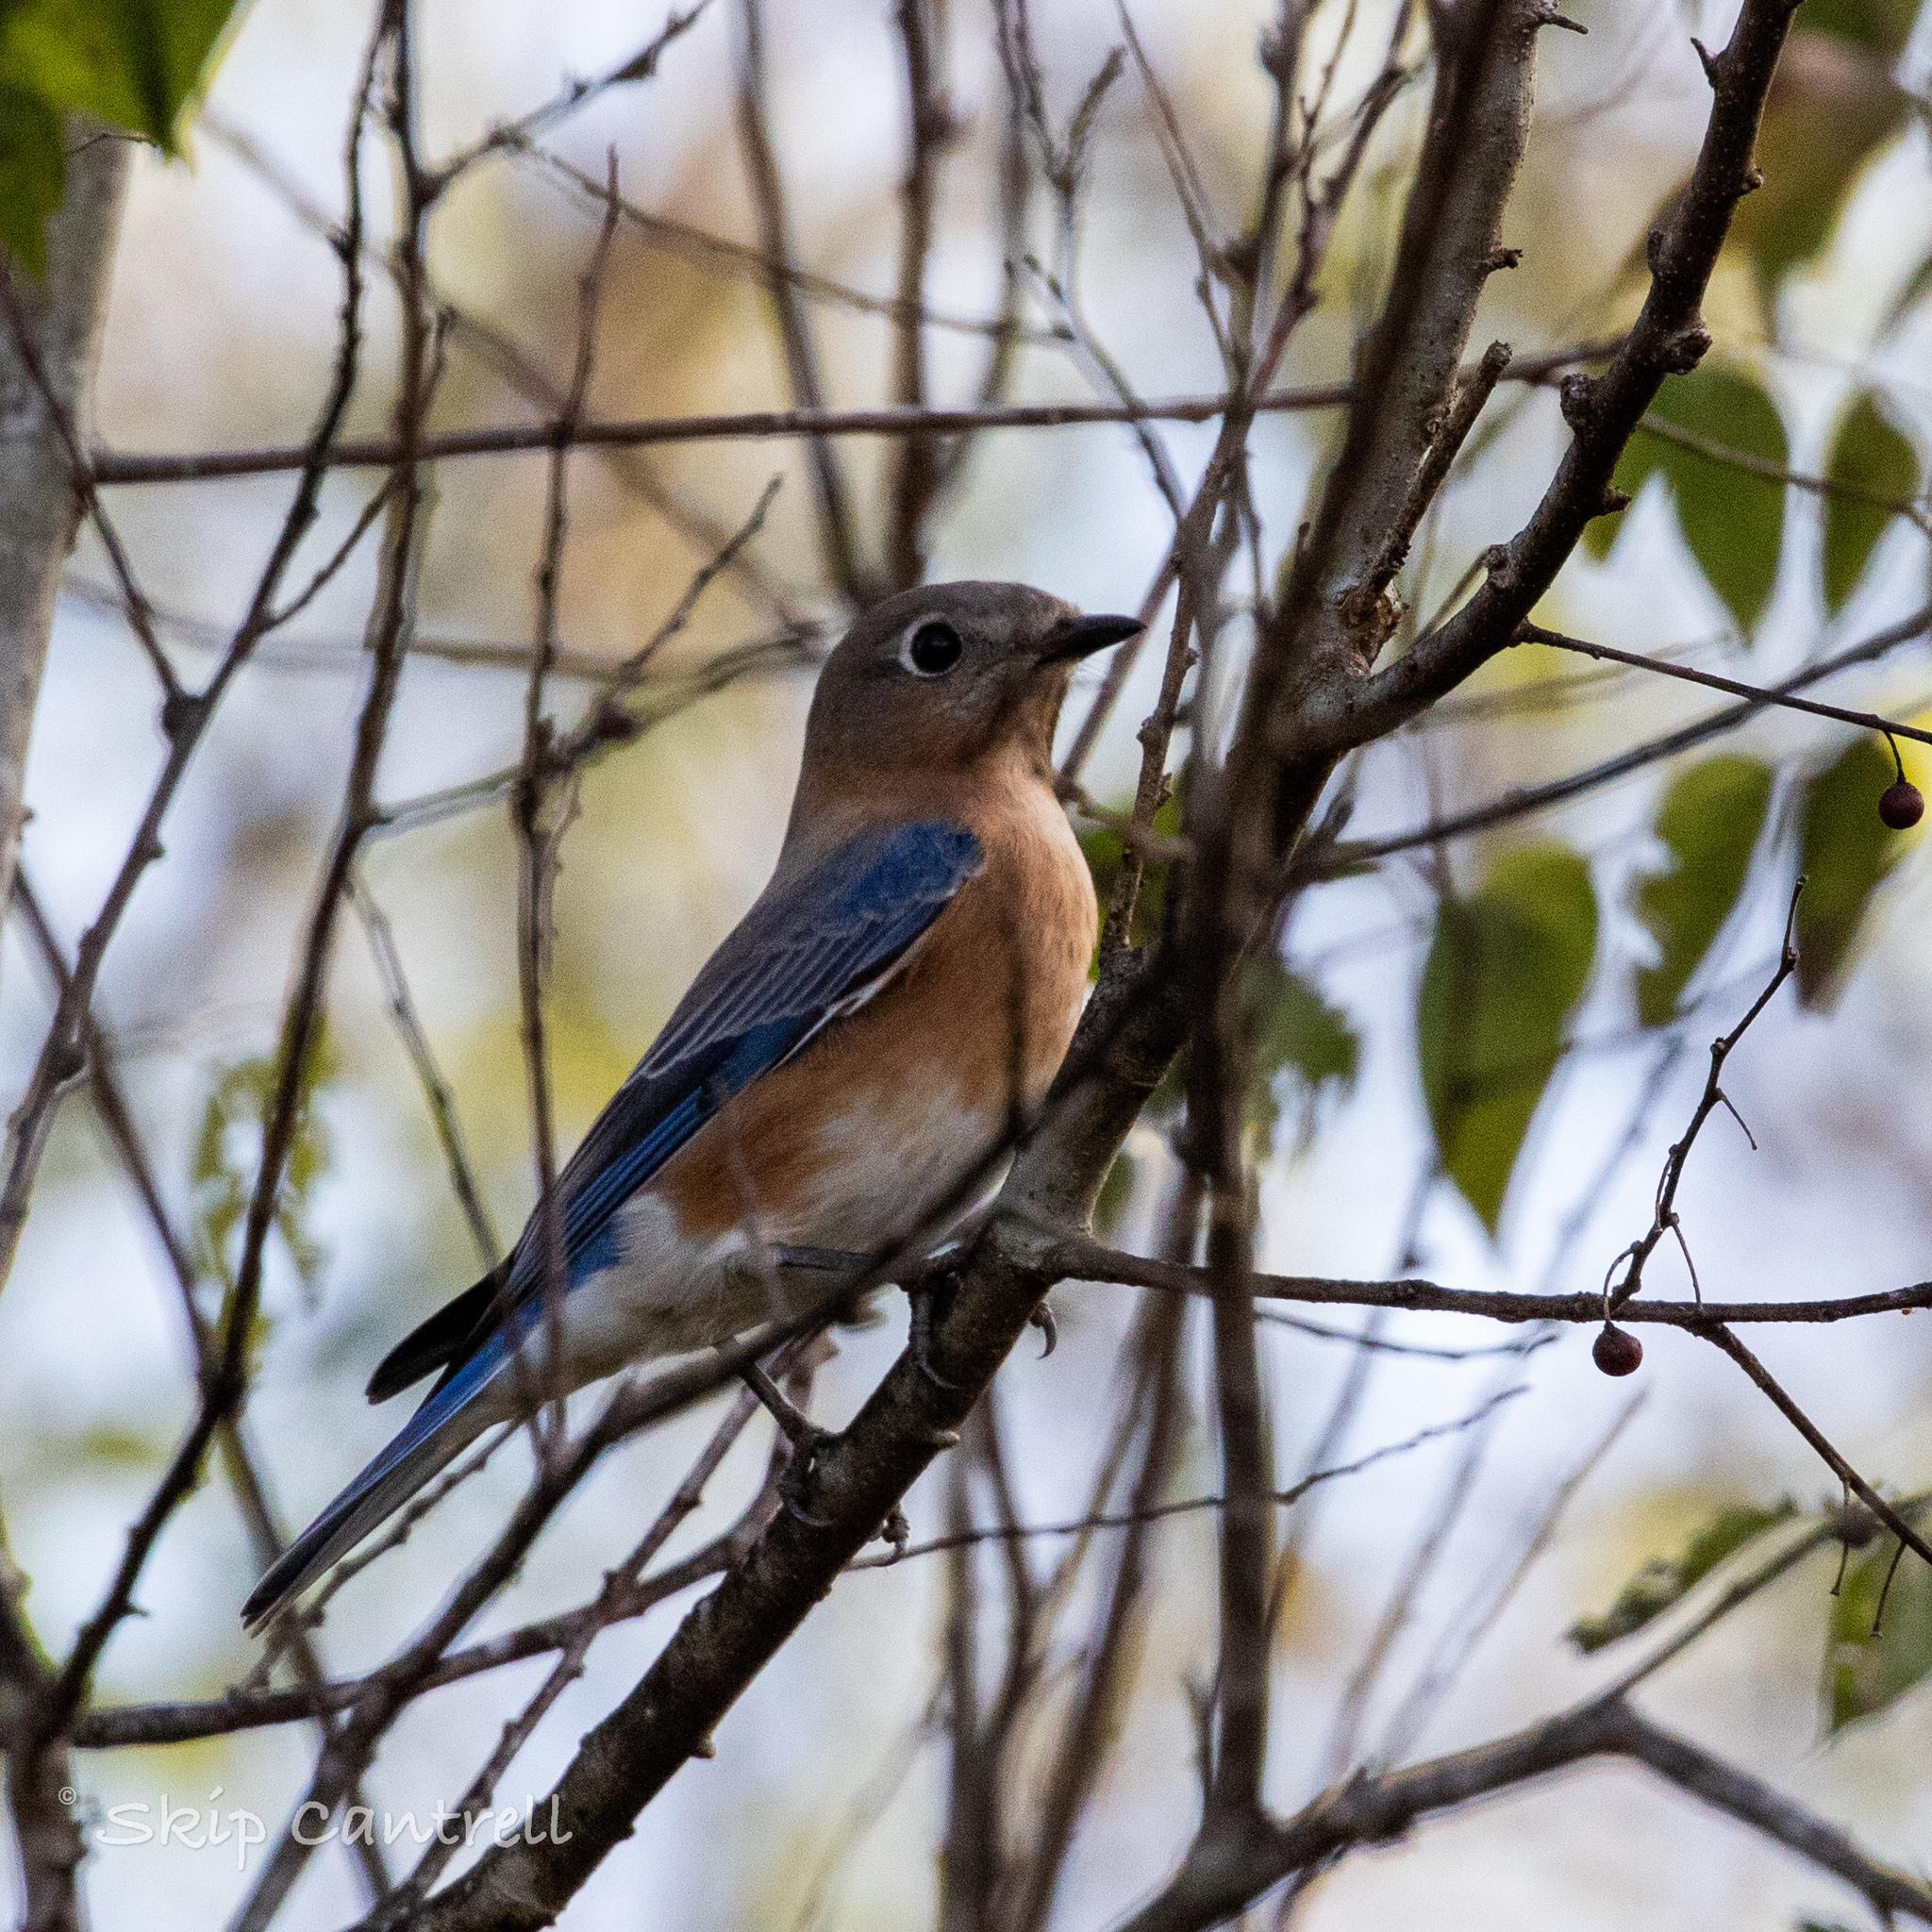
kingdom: Animalia
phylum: Chordata
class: Aves
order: Passeriformes
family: Turdidae
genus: Sialia
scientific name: Sialia sialis
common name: Eastern bluebird
